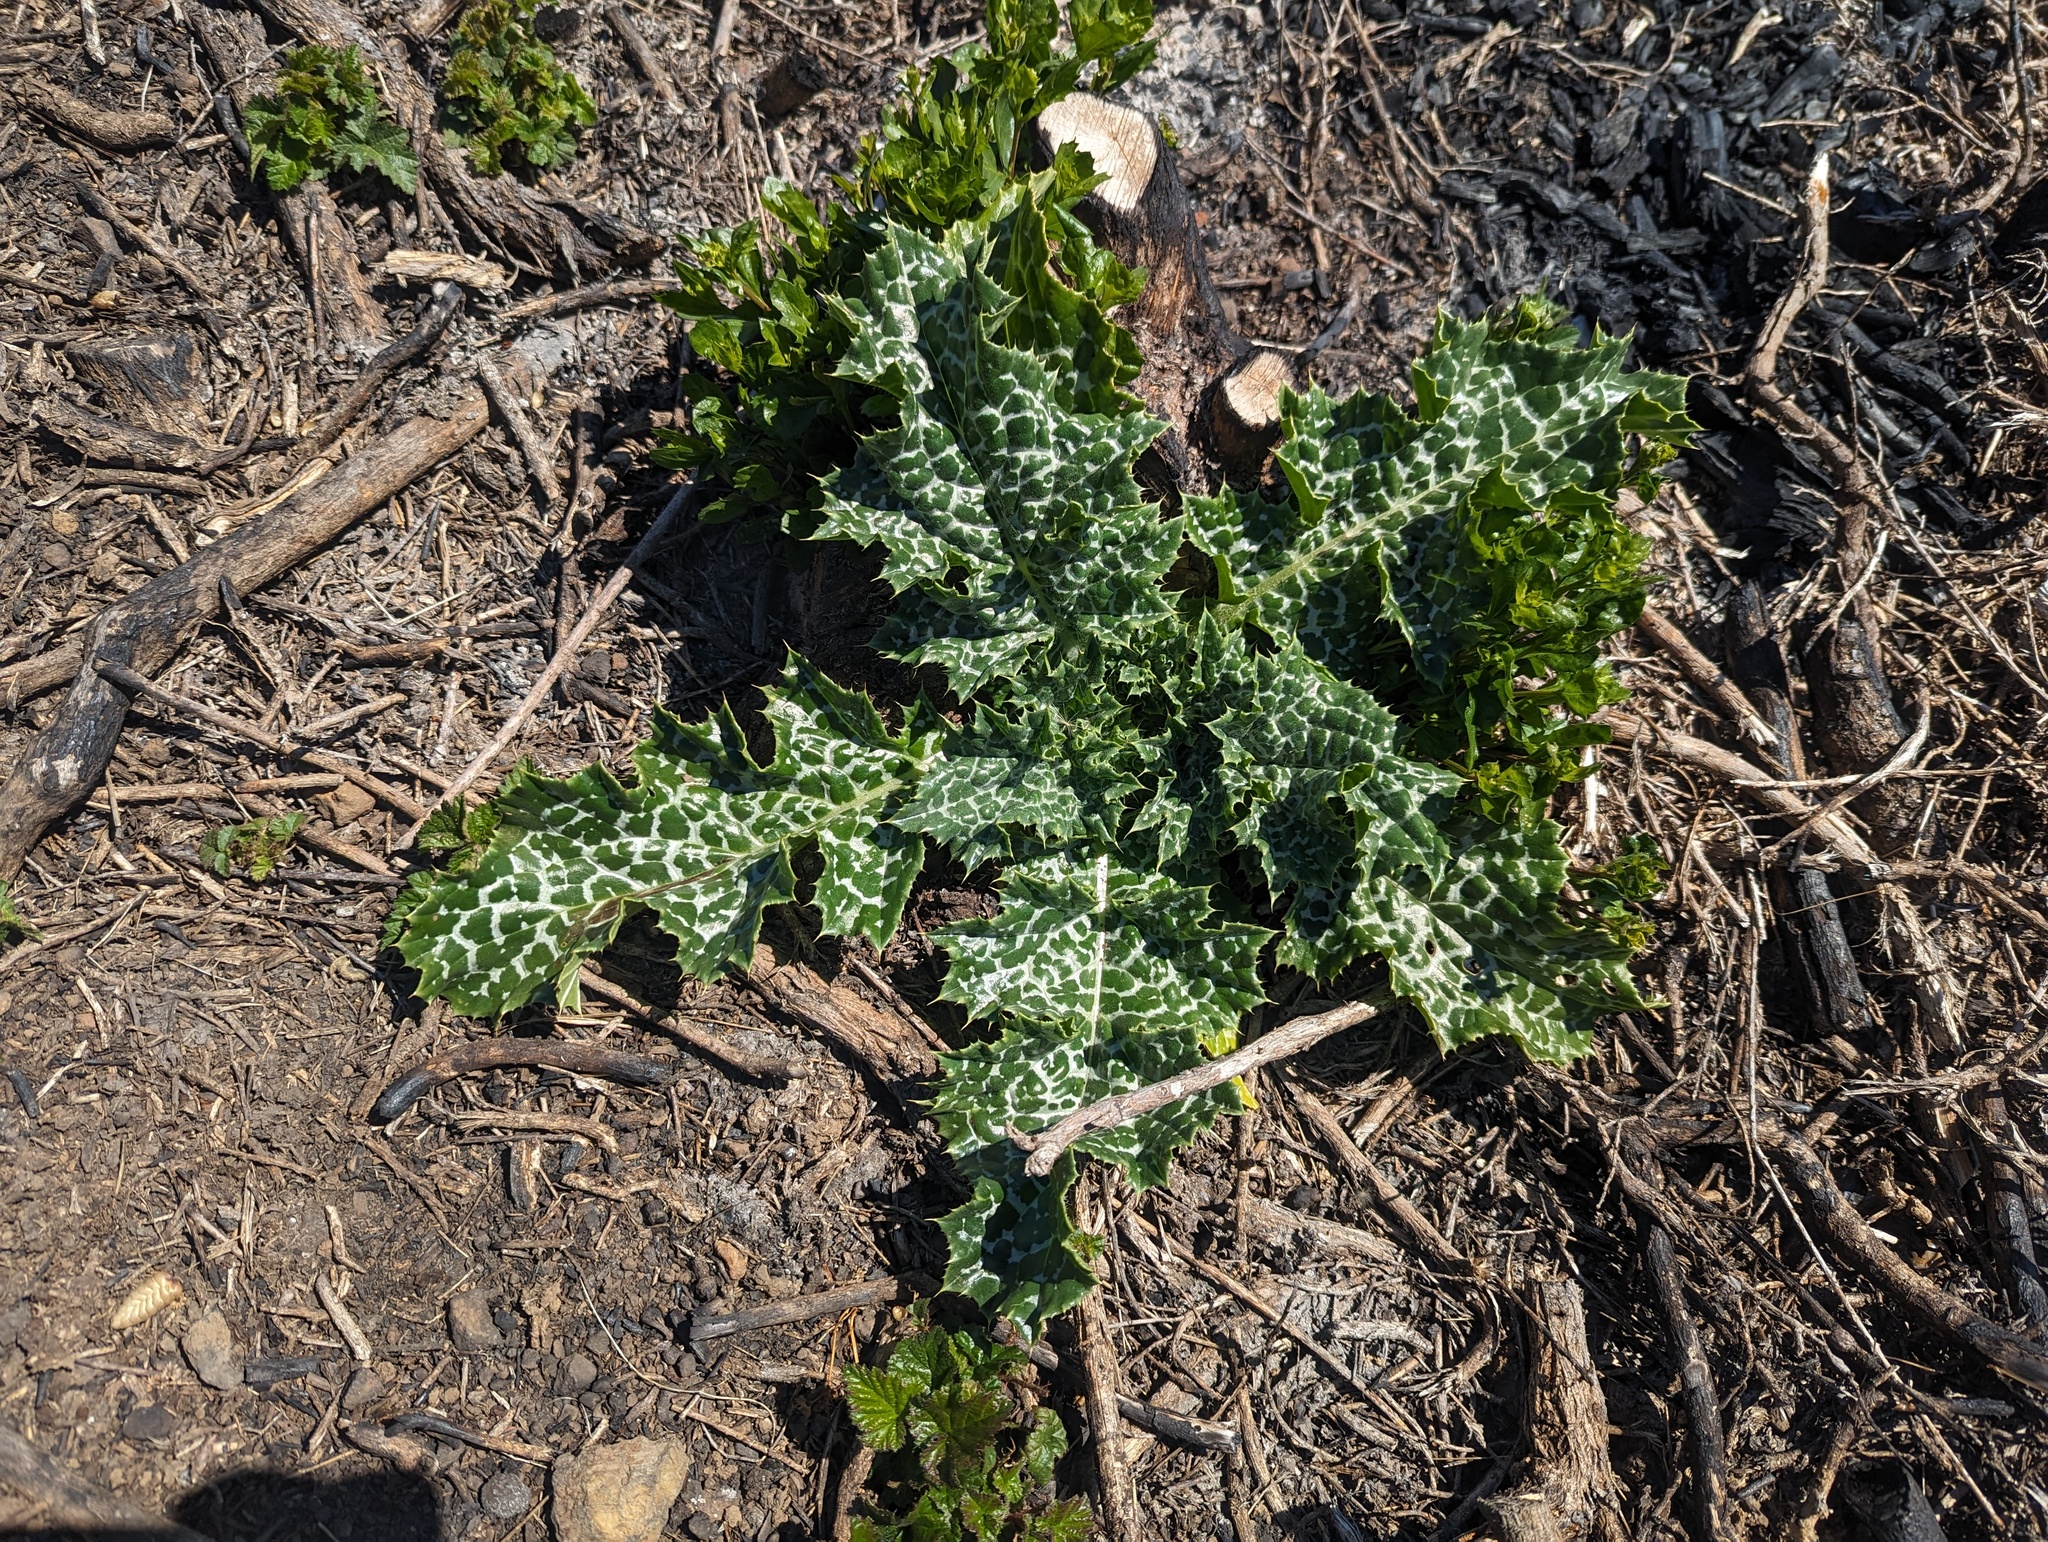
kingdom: Plantae
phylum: Tracheophyta
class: Magnoliopsida
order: Asterales
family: Asteraceae
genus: Silybum
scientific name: Silybum marianum
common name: Milk thistle
